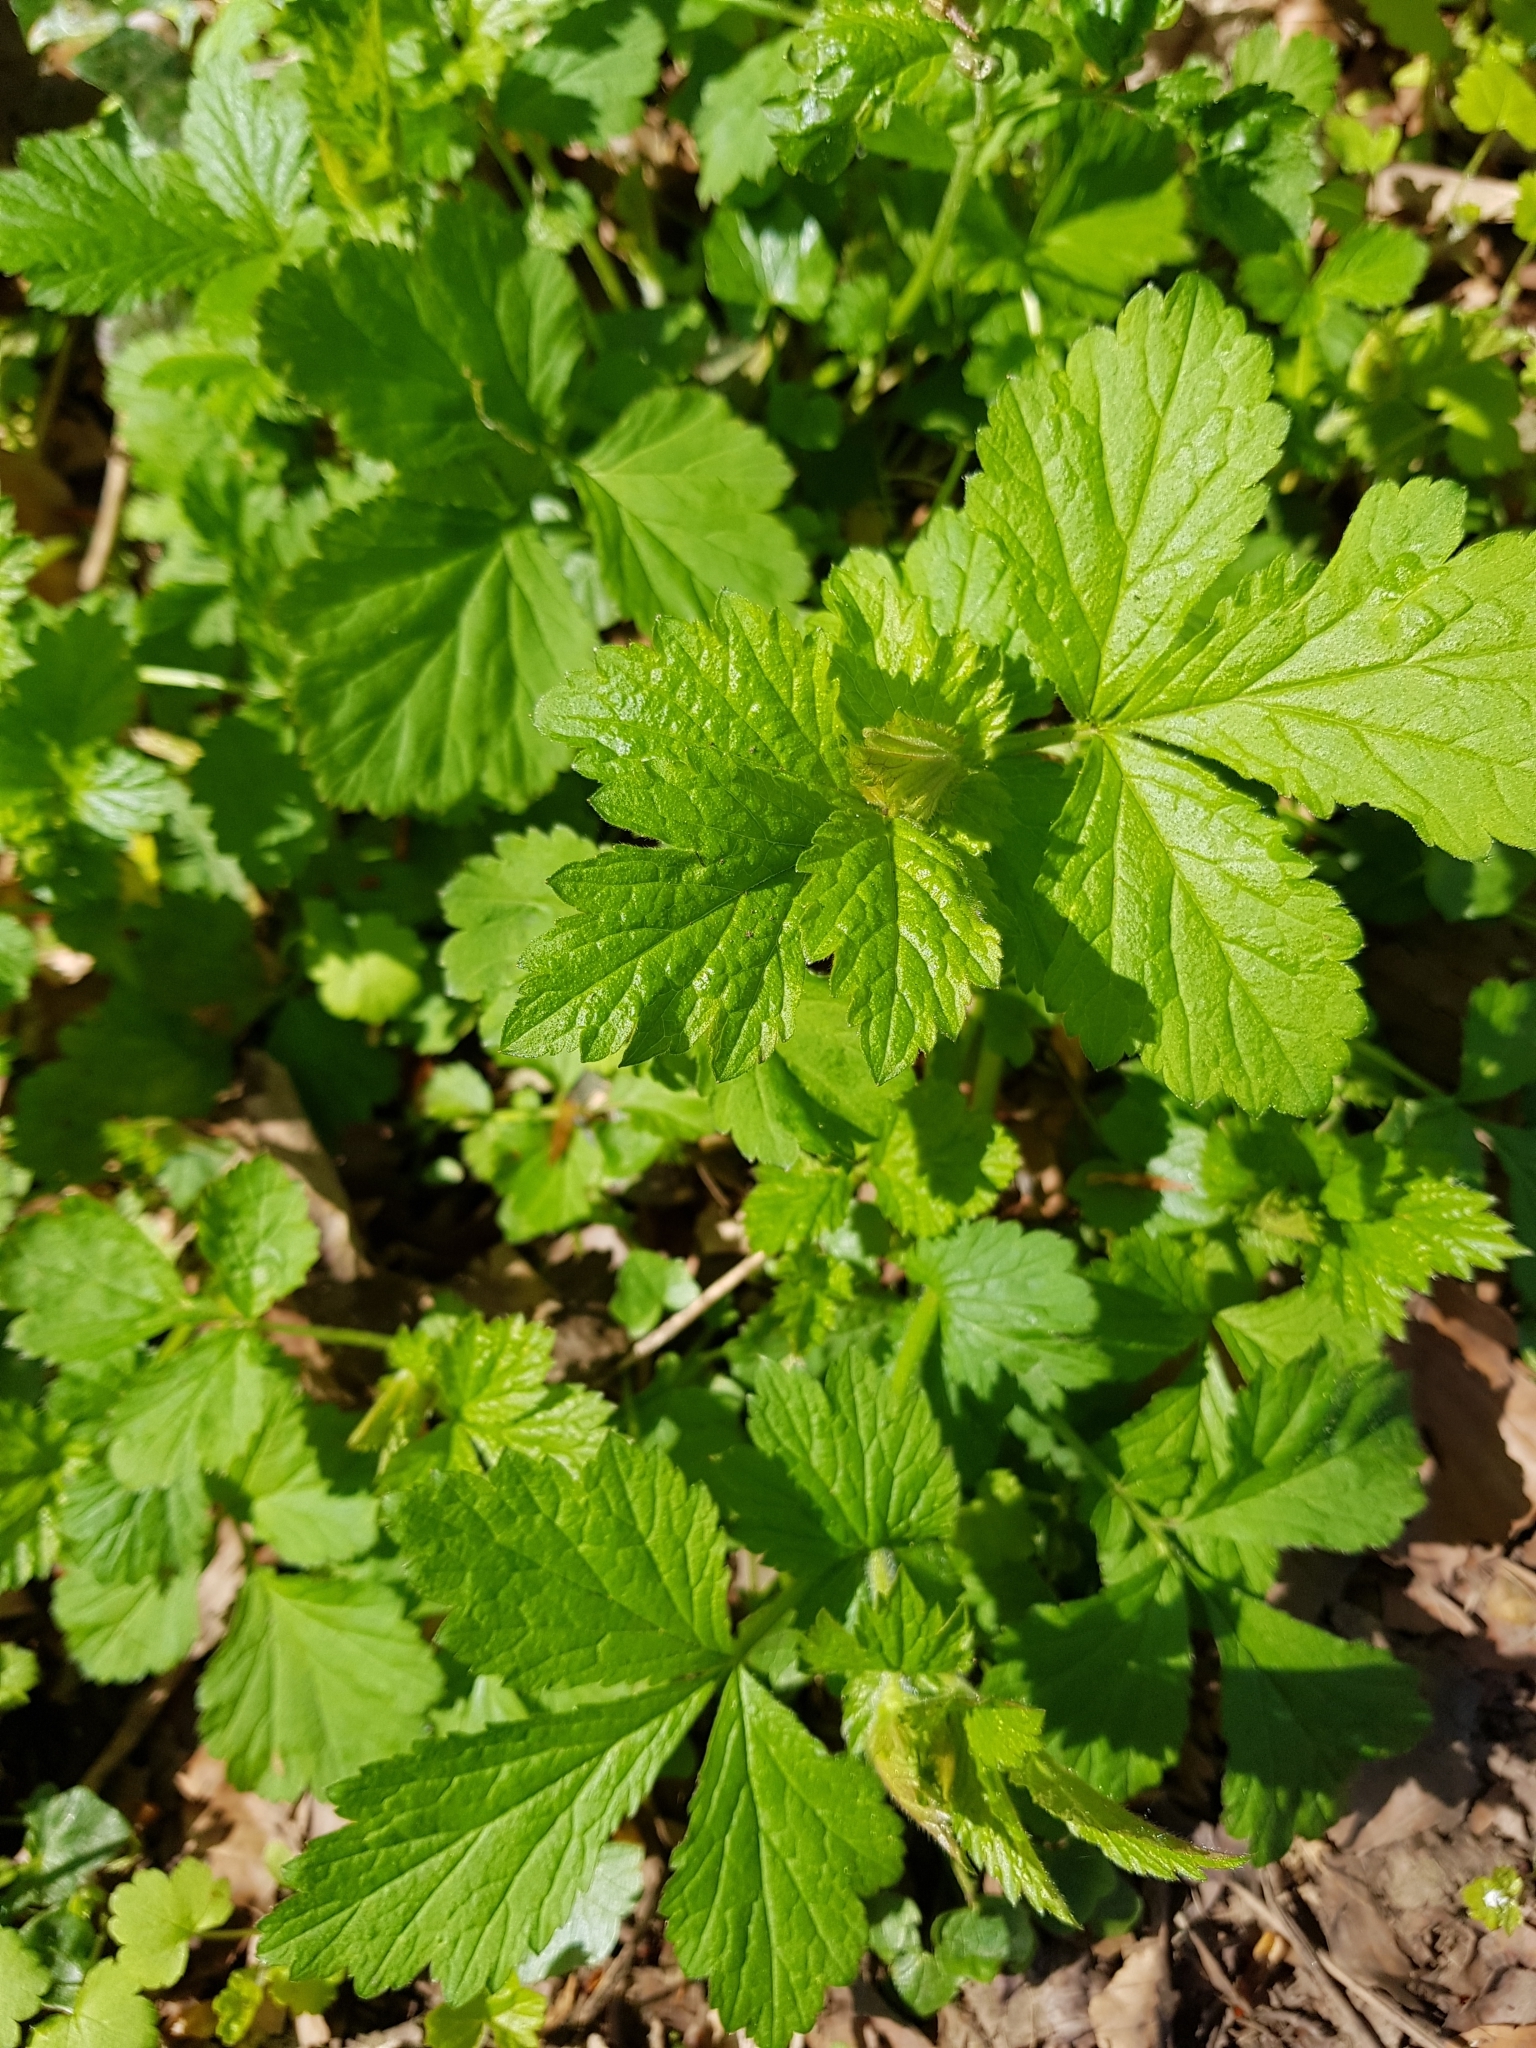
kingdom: Plantae
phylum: Tracheophyta
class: Magnoliopsida
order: Rosales
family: Rosaceae
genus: Geum
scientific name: Geum urbanum
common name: Wood avens
